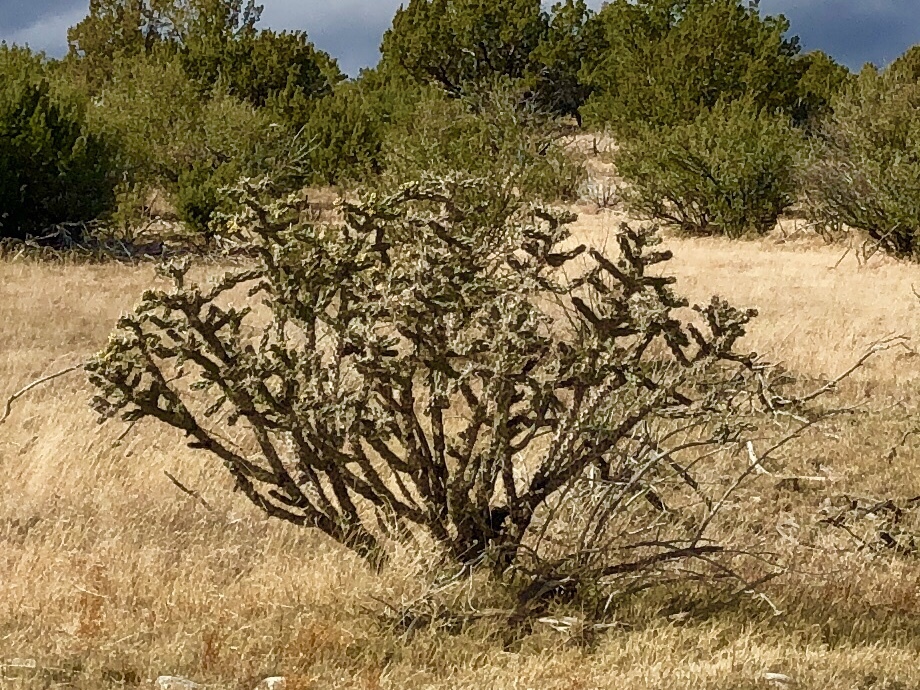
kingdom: Plantae
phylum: Tracheophyta
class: Magnoliopsida
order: Caryophyllales
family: Cactaceae
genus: Cylindropuntia
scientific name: Cylindropuntia imbricata
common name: Candelabrum cactus
